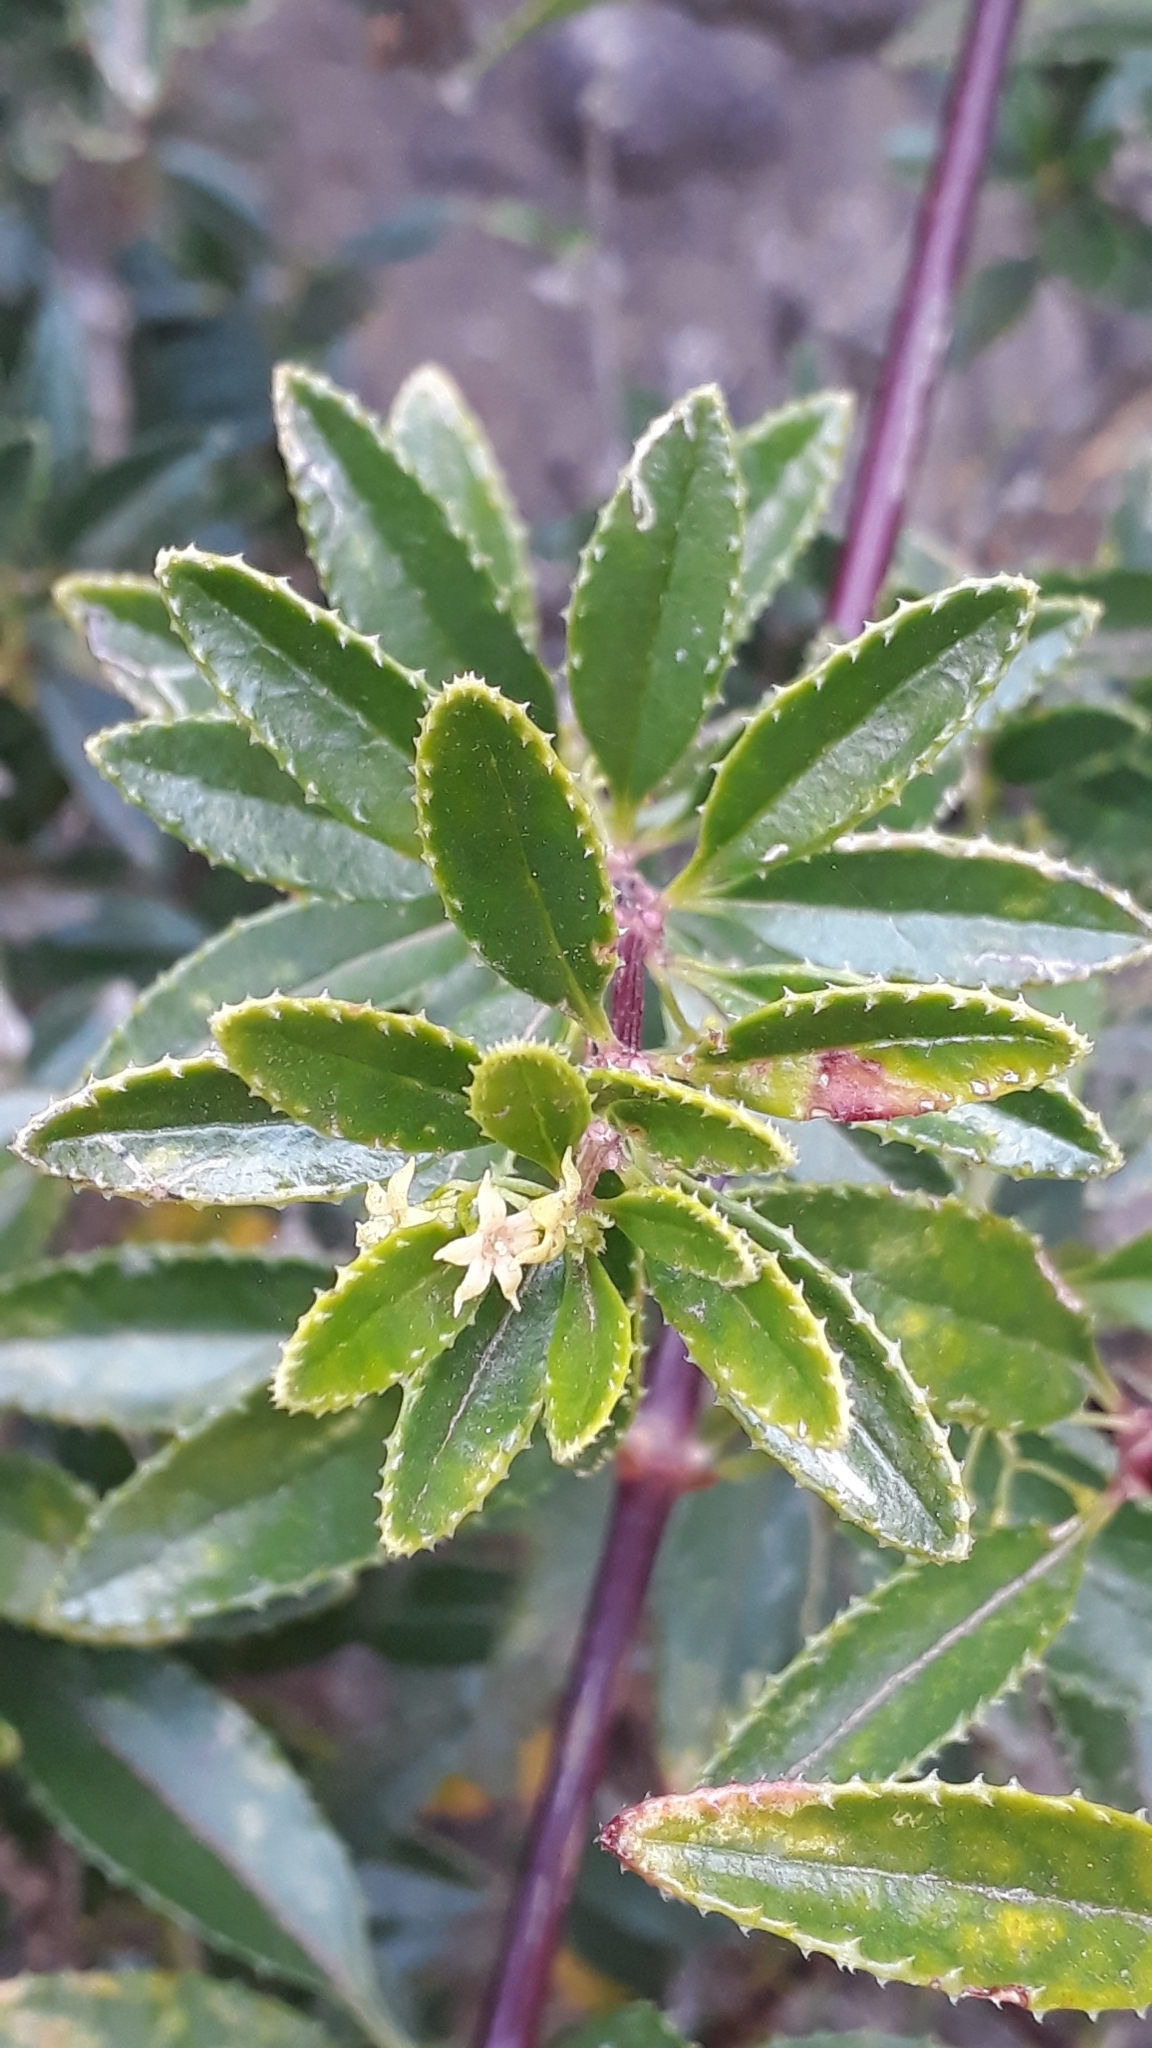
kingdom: Plantae
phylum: Tracheophyta
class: Magnoliopsida
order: Gentianales
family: Rubiaceae
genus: Rubia
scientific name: Rubia fruticosa
